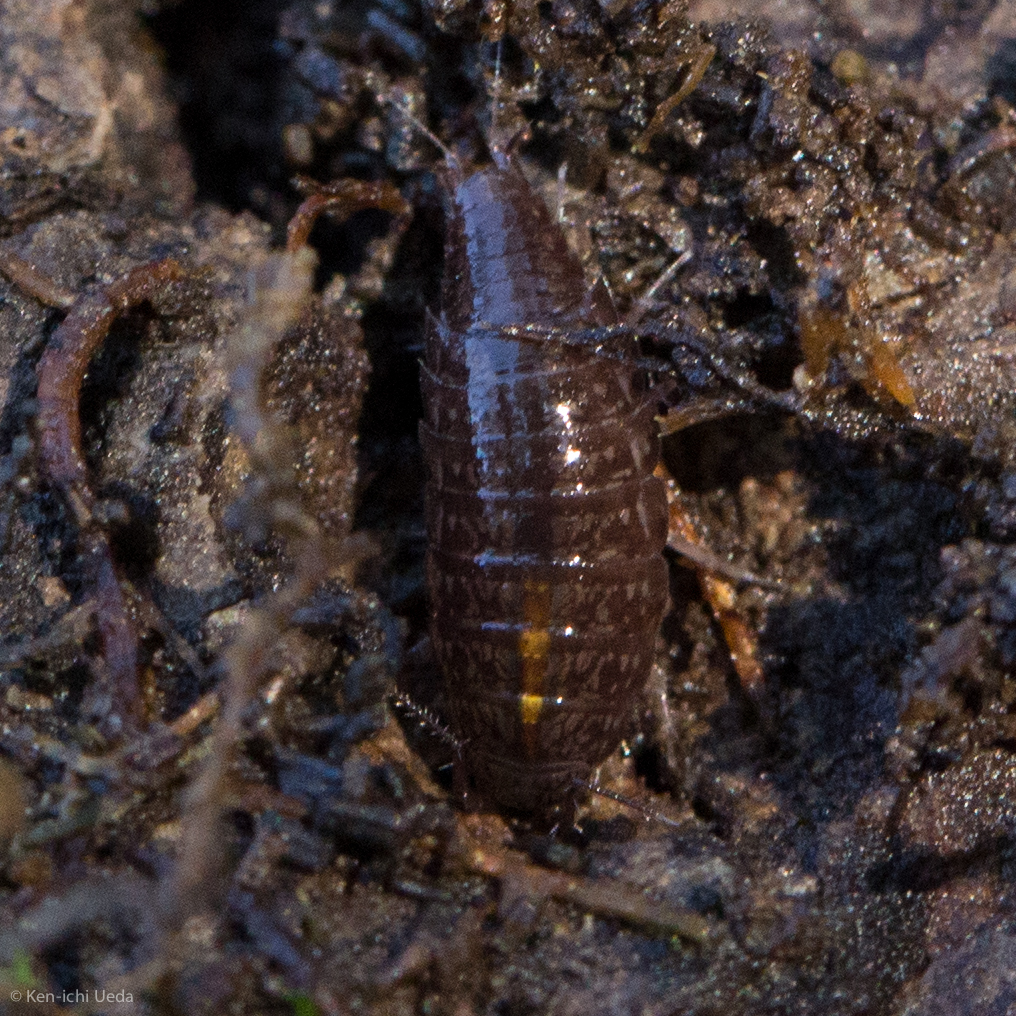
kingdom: Animalia
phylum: Arthropoda
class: Malacostraca
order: Isopoda
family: Ligiidae
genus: Ligidium
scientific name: Ligidium gracile
